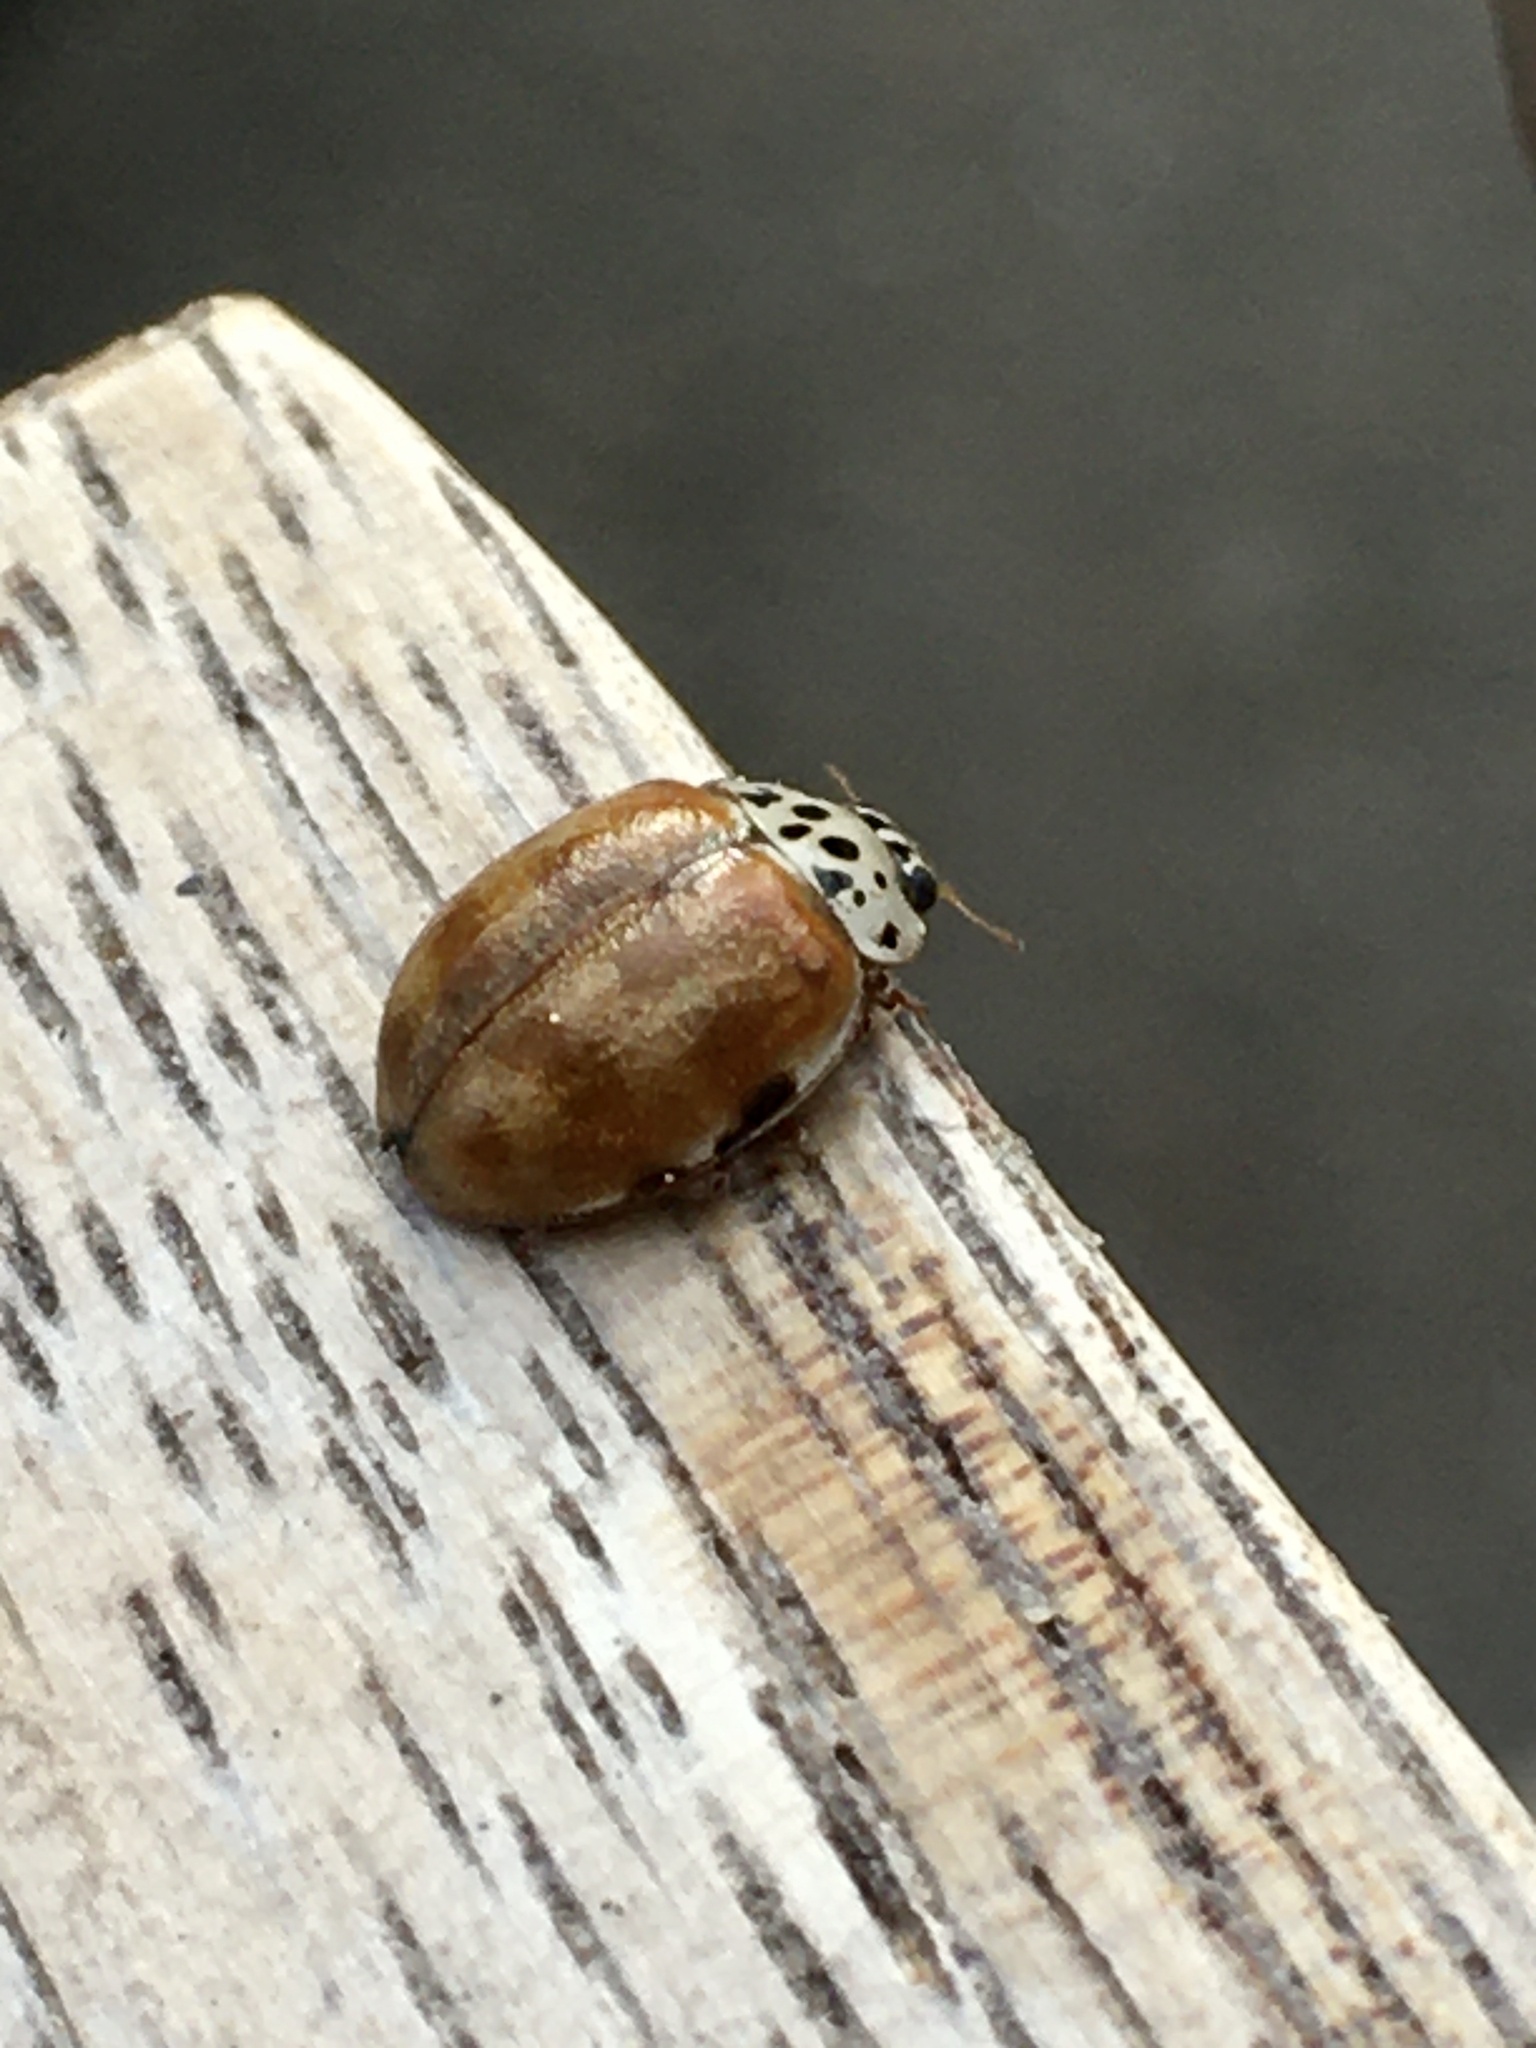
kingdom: Animalia
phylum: Arthropoda
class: Insecta
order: Coleoptera
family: Coccinellidae
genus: Harmonia
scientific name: Harmonia quadripunctata
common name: Cream-streaked ladybird
